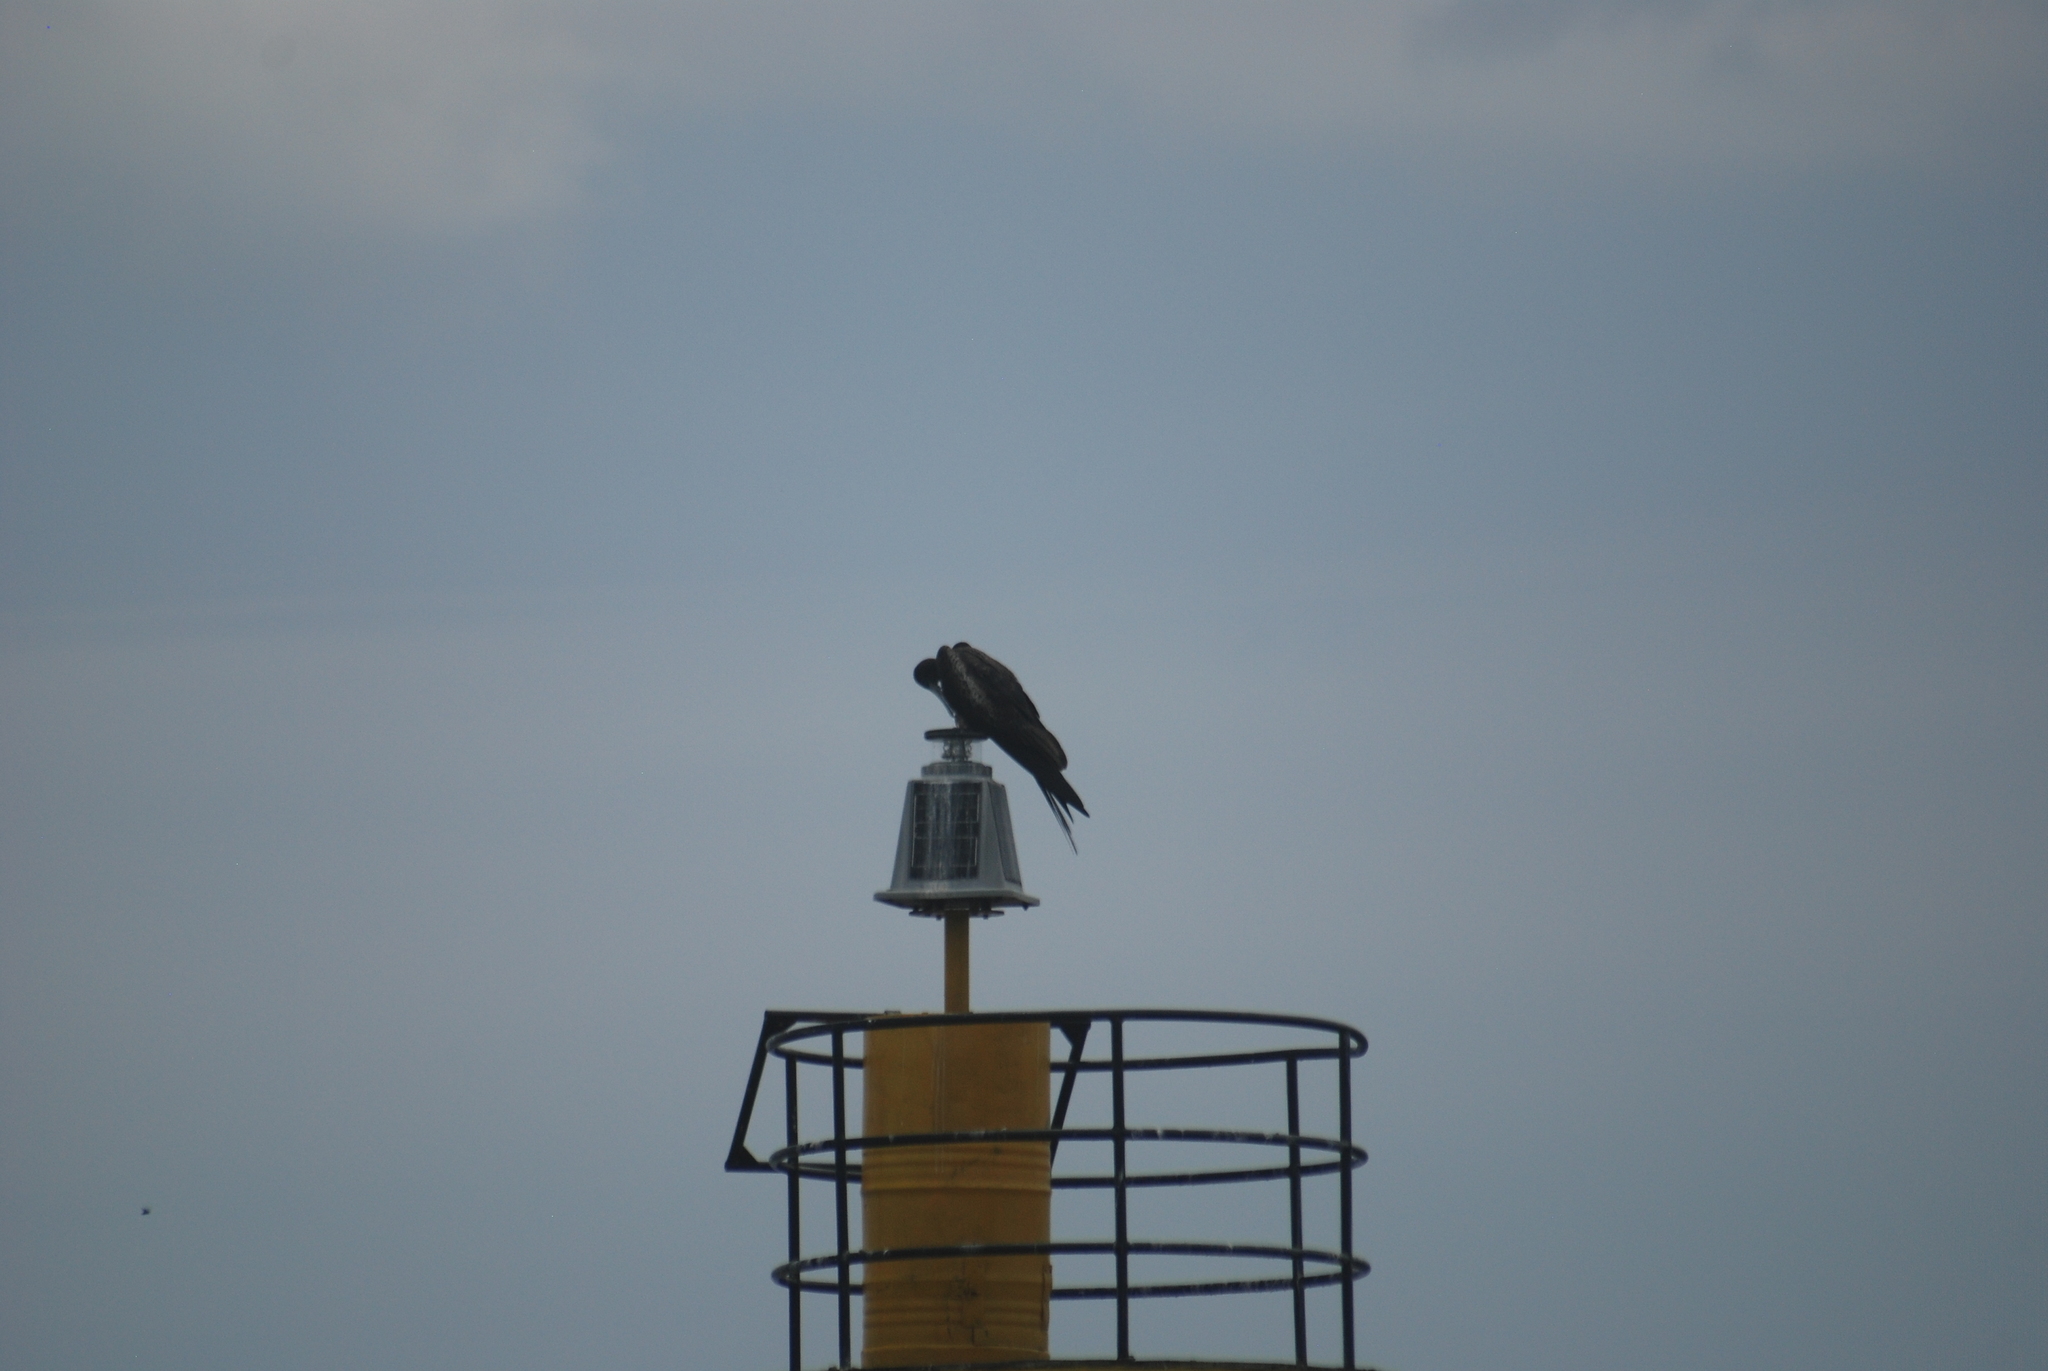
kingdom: Animalia
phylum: Chordata
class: Aves
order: Suliformes
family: Fregatidae
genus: Fregata
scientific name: Fregata magnificens
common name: Magnificent frigatebird
